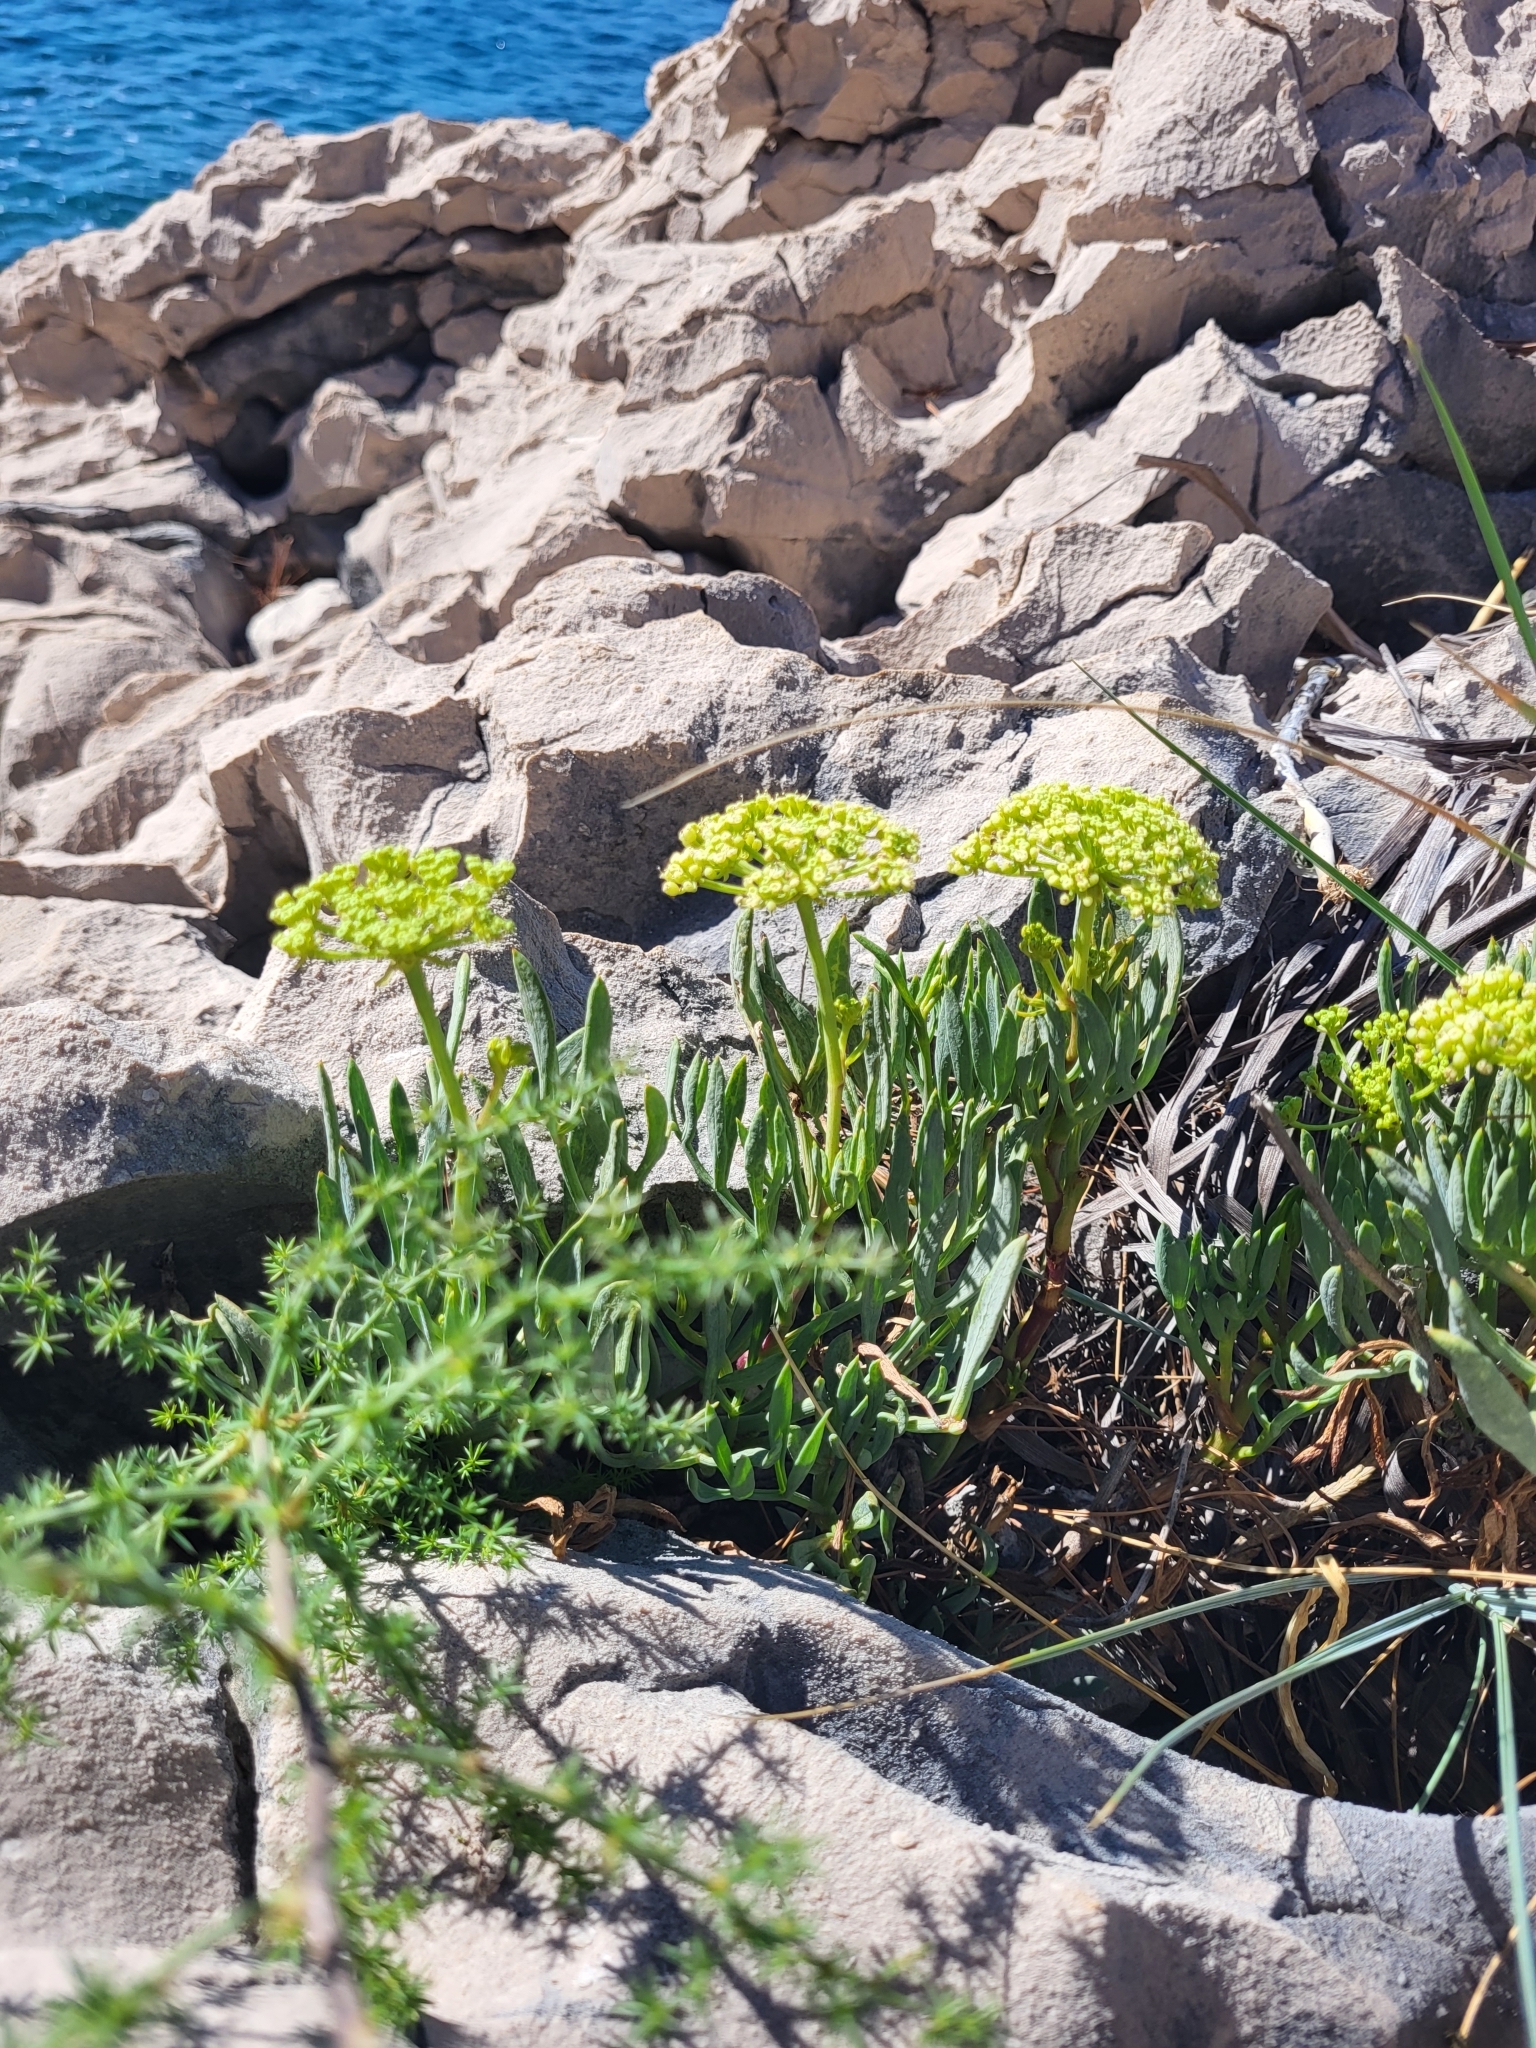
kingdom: Plantae
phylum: Tracheophyta
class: Magnoliopsida
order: Apiales
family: Apiaceae
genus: Crithmum
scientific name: Crithmum maritimum
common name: Rock samphire
